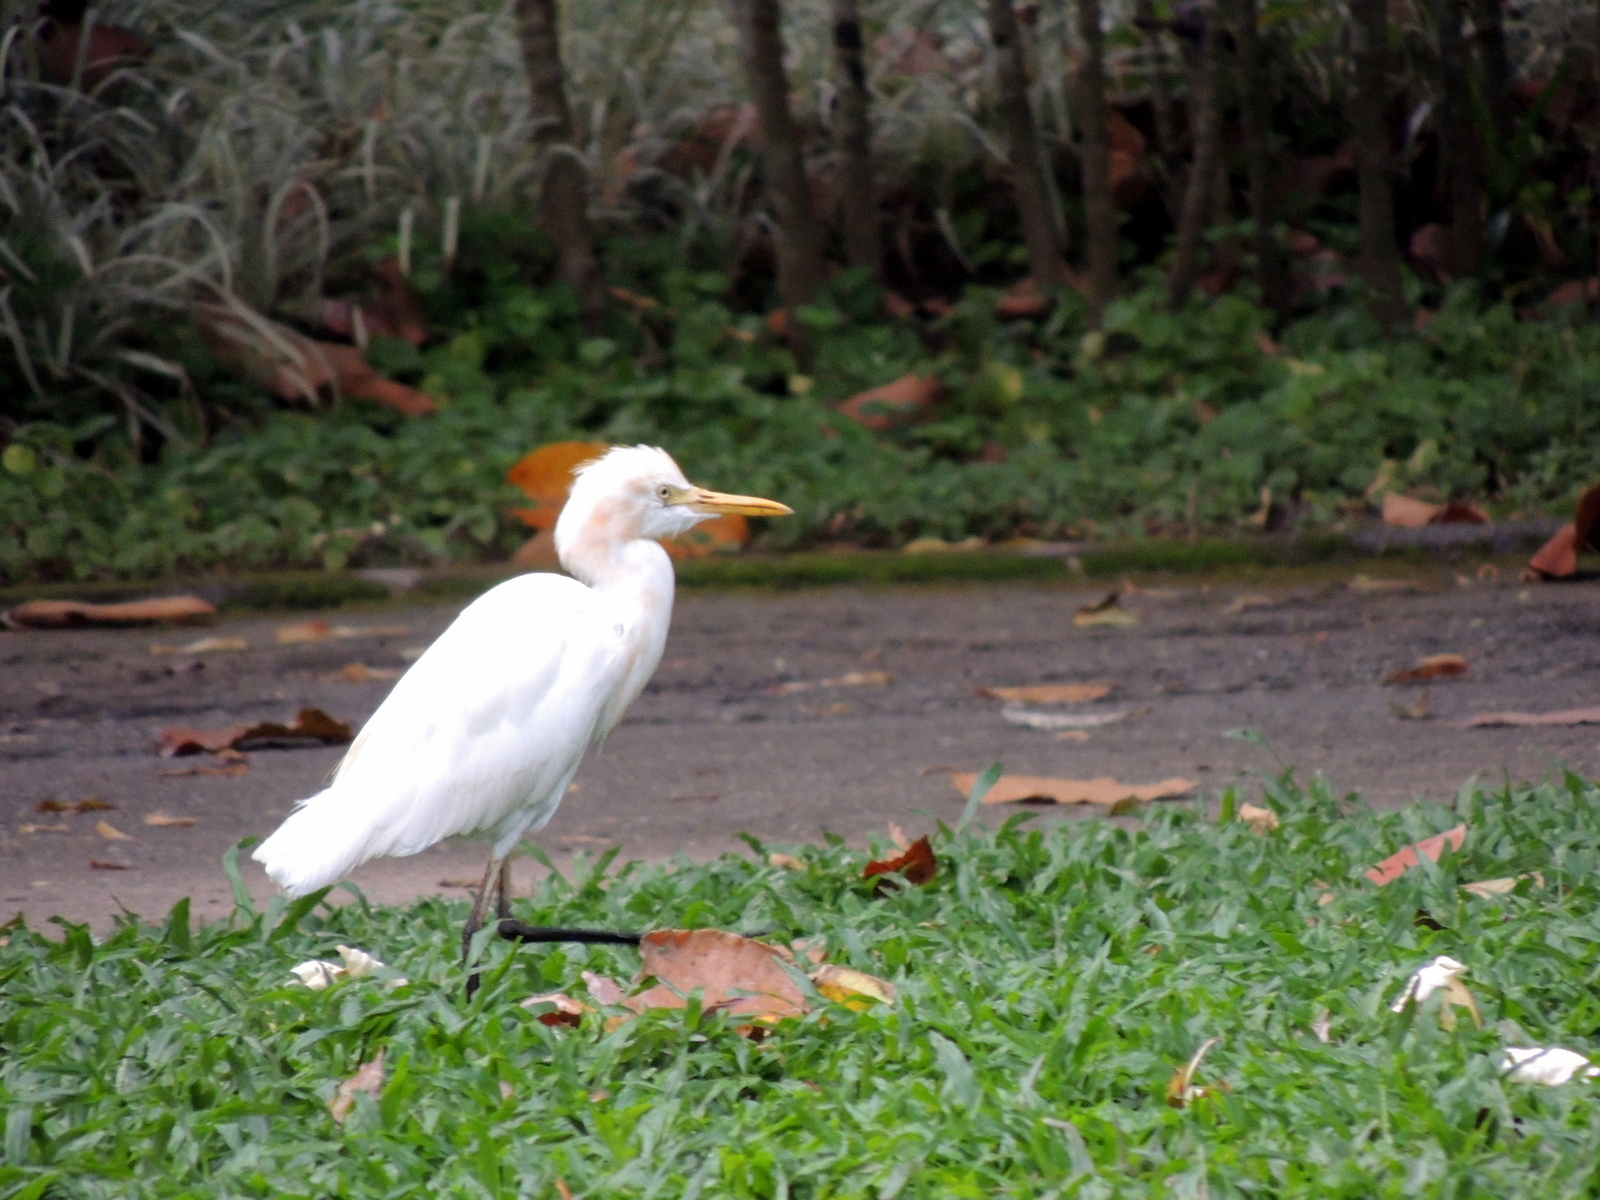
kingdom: Animalia
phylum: Chordata
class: Aves
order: Pelecaniformes
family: Ardeidae
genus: Bubulcus
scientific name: Bubulcus coromandus
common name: Eastern cattle egret
